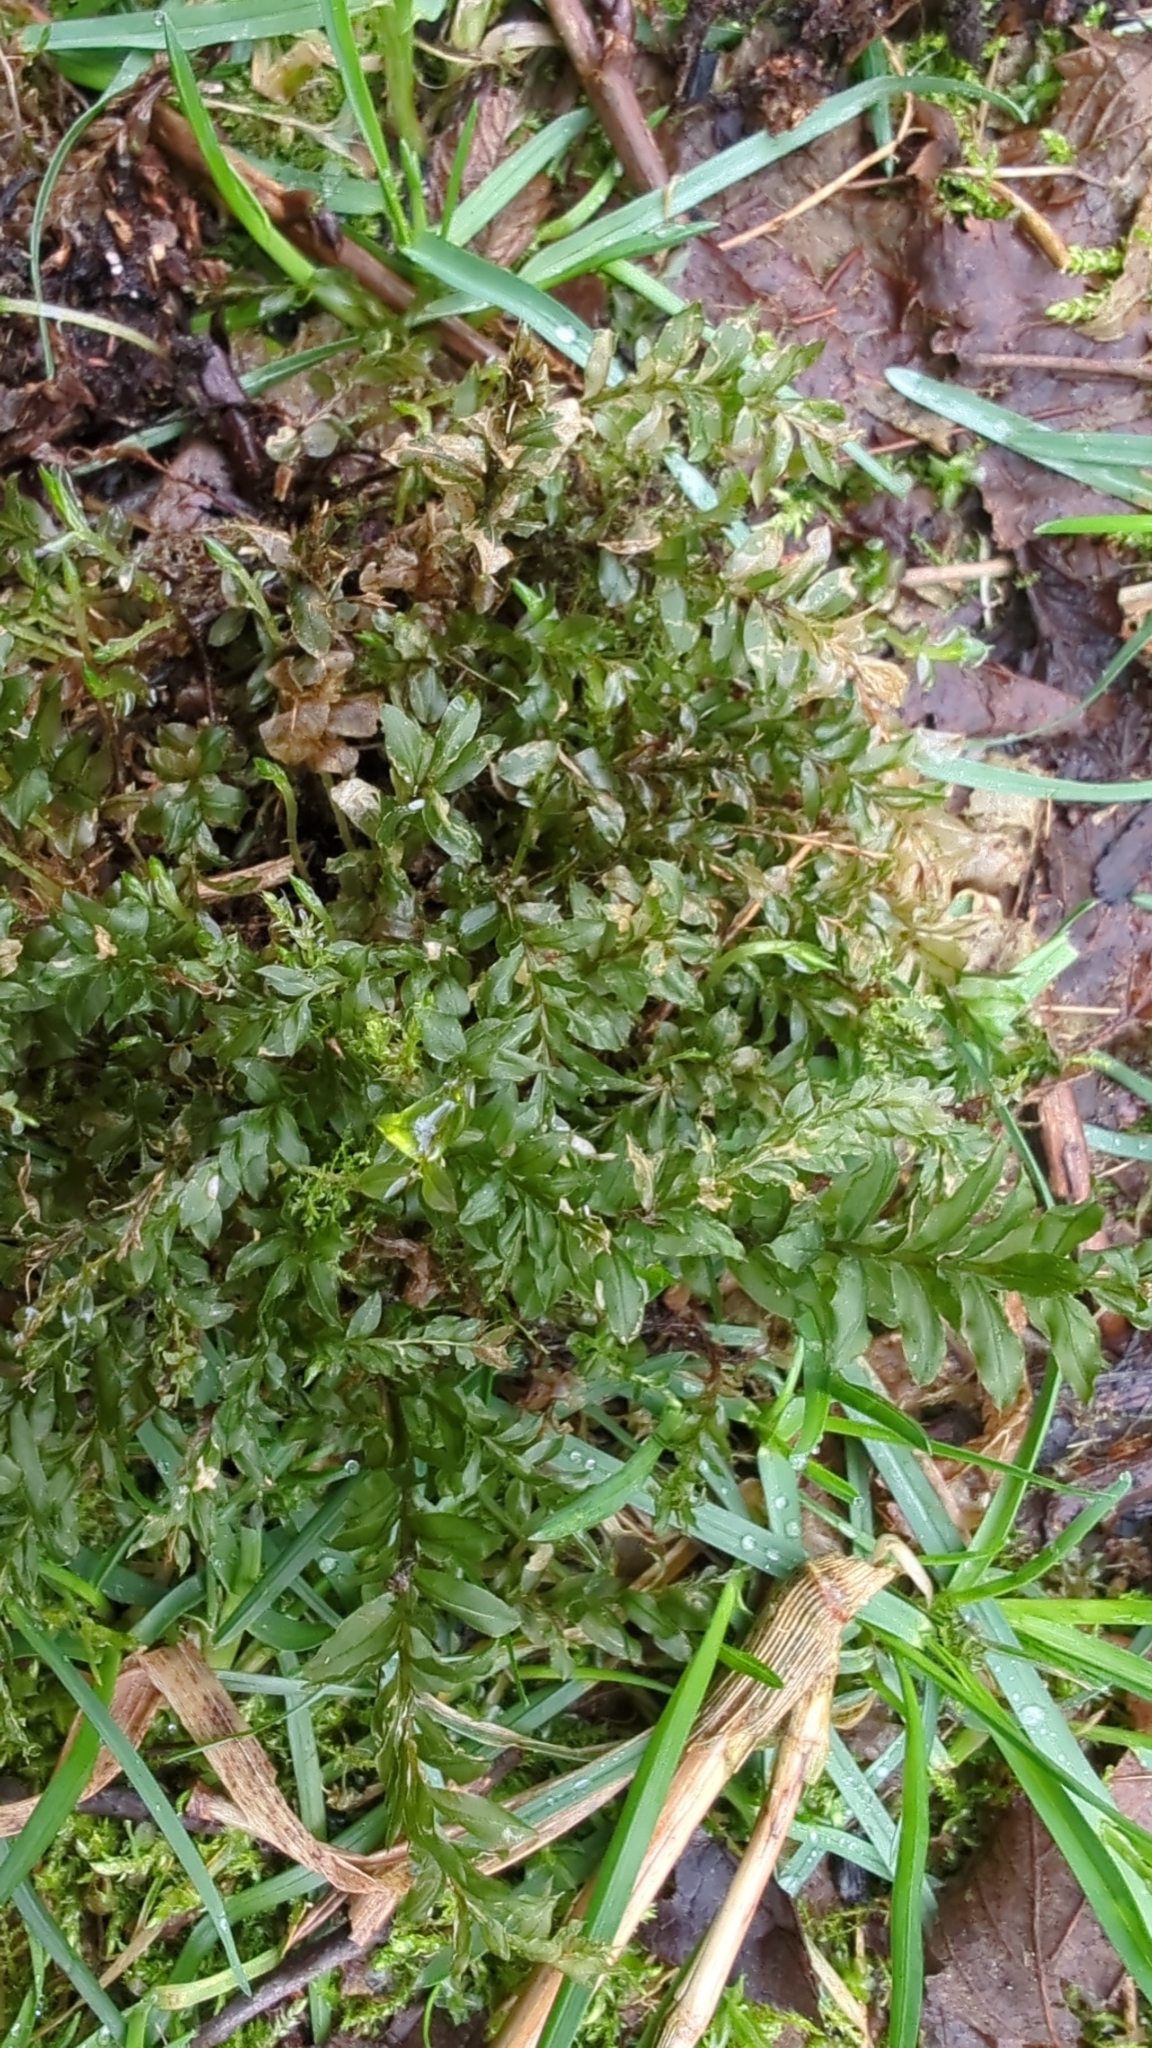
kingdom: Plantae
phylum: Bryophyta
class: Bryopsida
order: Bryales
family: Mniaceae
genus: Plagiomnium
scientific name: Plagiomnium insigne
